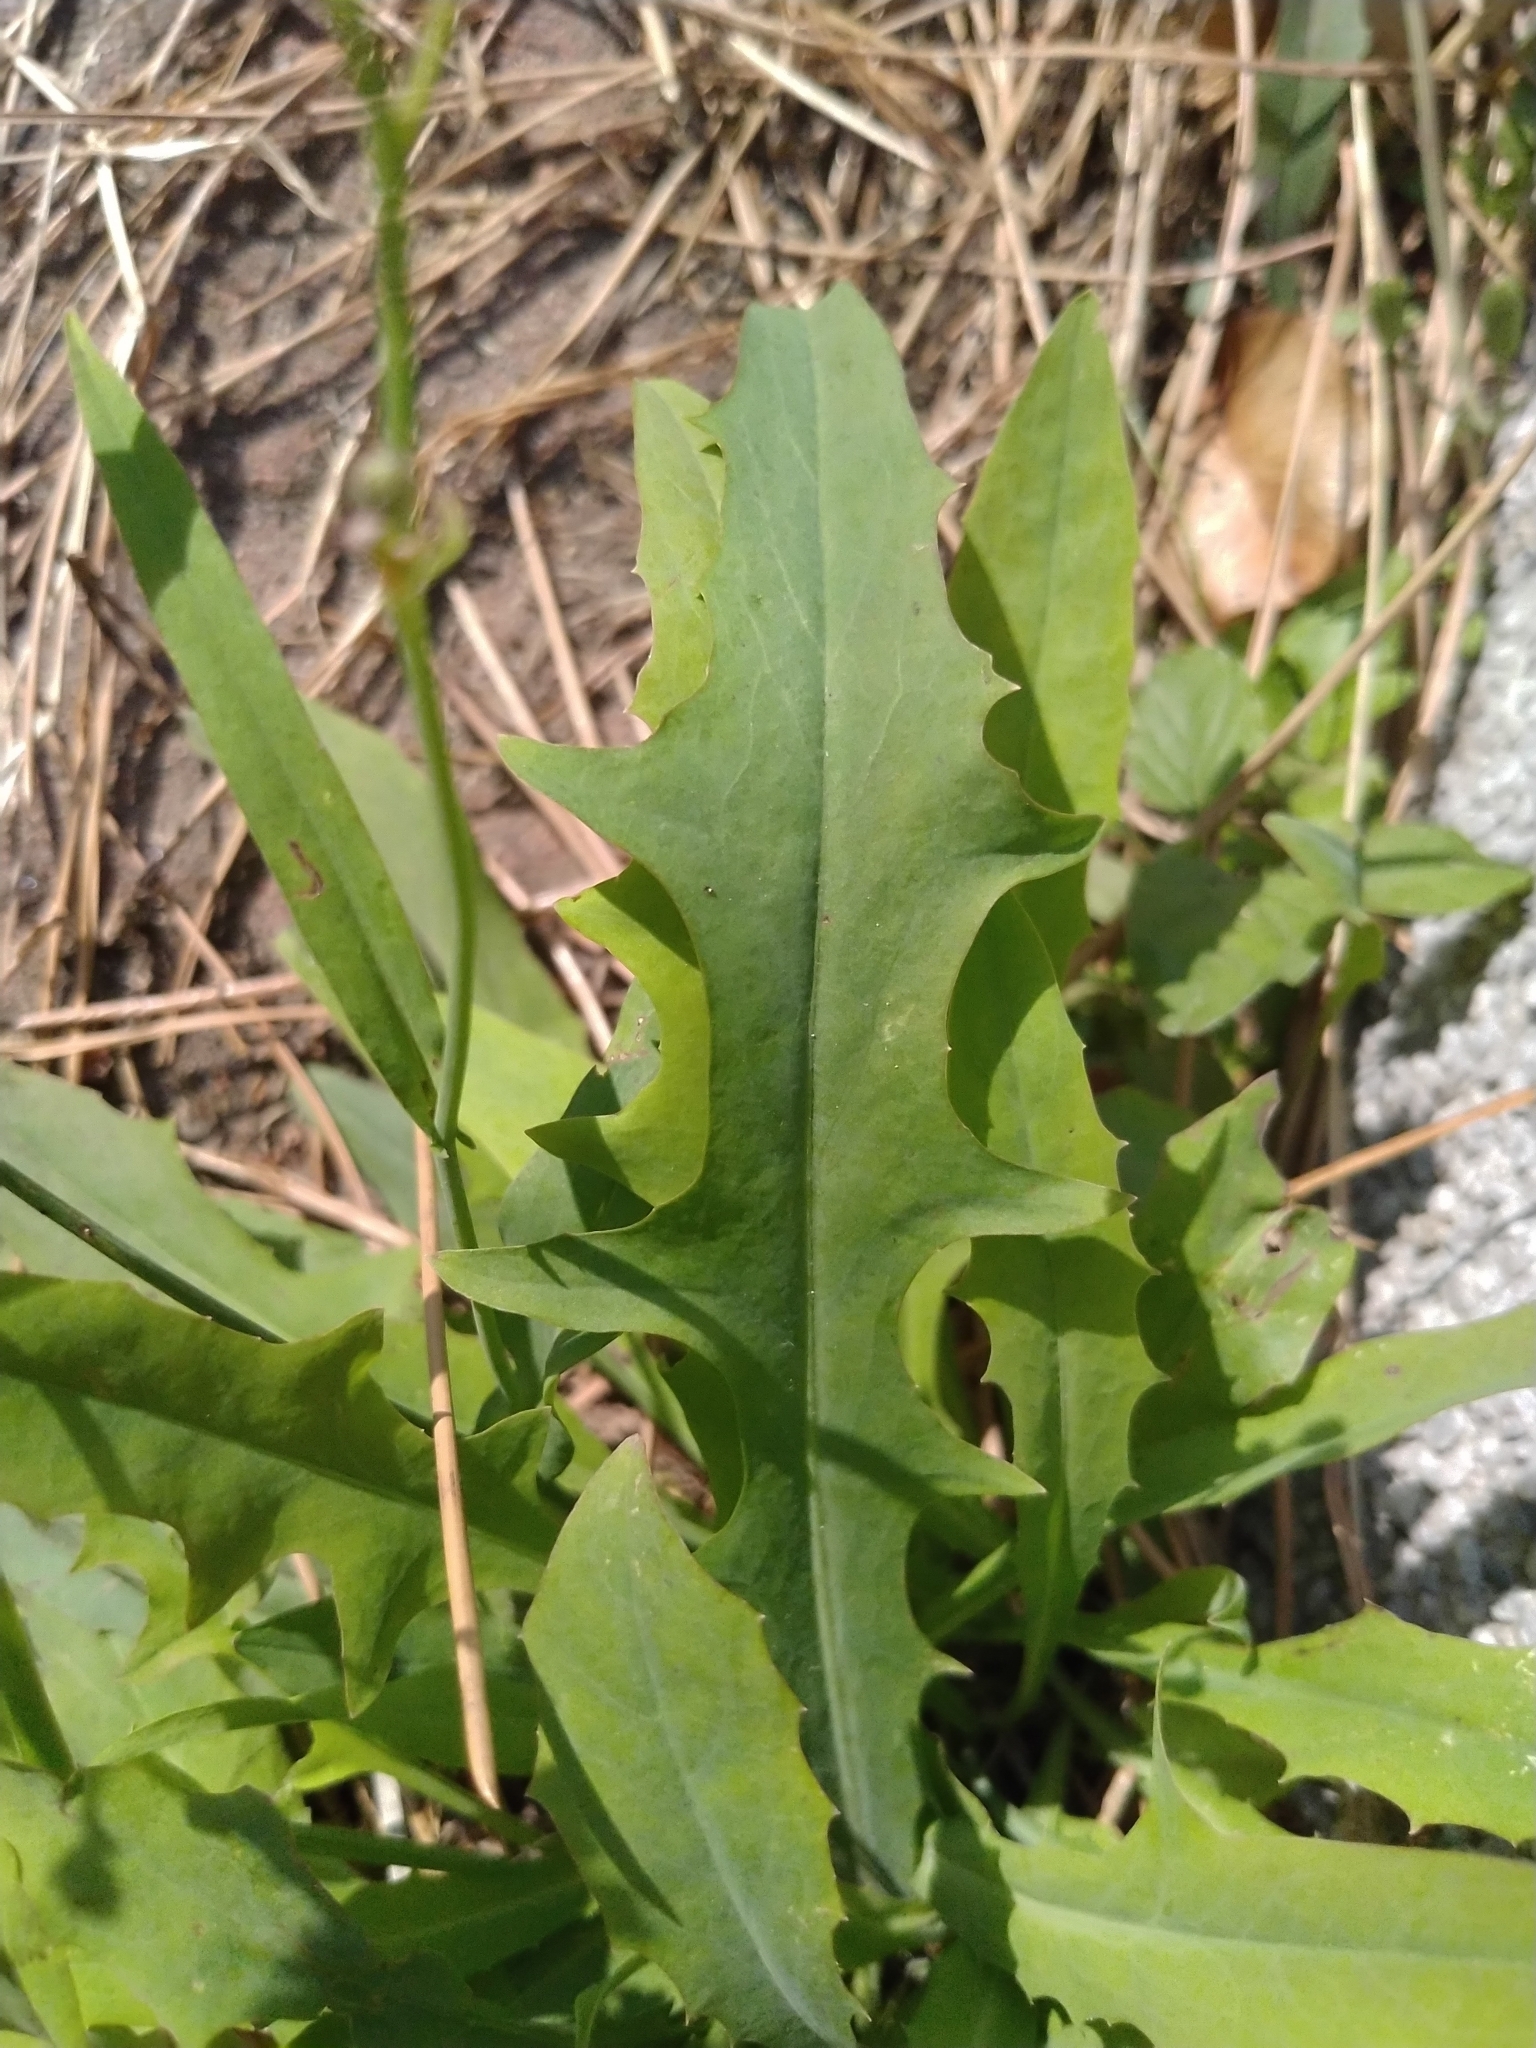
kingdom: Plantae
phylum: Tracheophyta
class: Magnoliopsida
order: Asterales
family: Asteraceae
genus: Ixeris
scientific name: Ixeris chinensis
